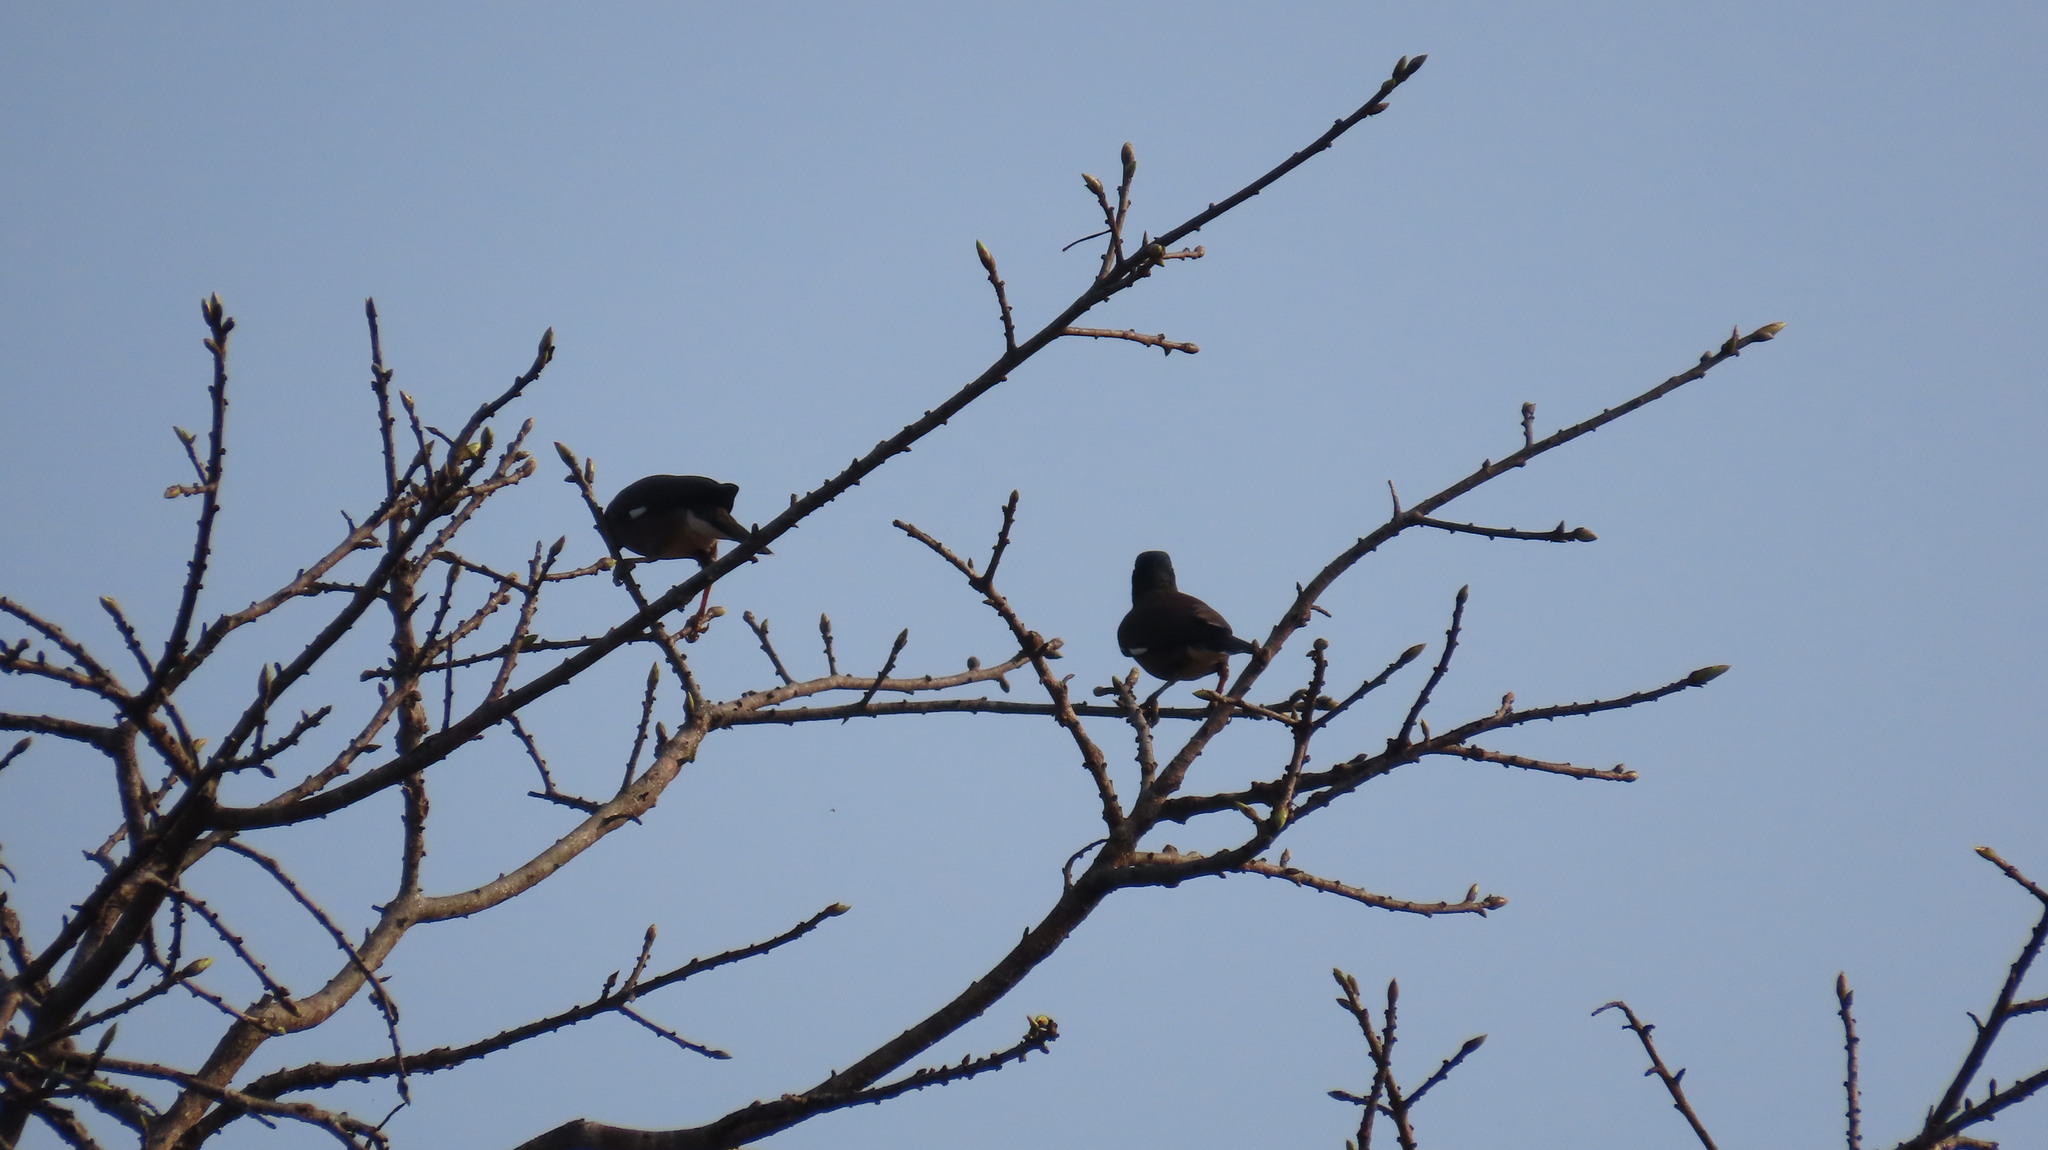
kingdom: Animalia
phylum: Chordata
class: Aves
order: Passeriformes
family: Sturnidae
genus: Acridotheres
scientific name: Acridotheres tristis
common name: Common myna
